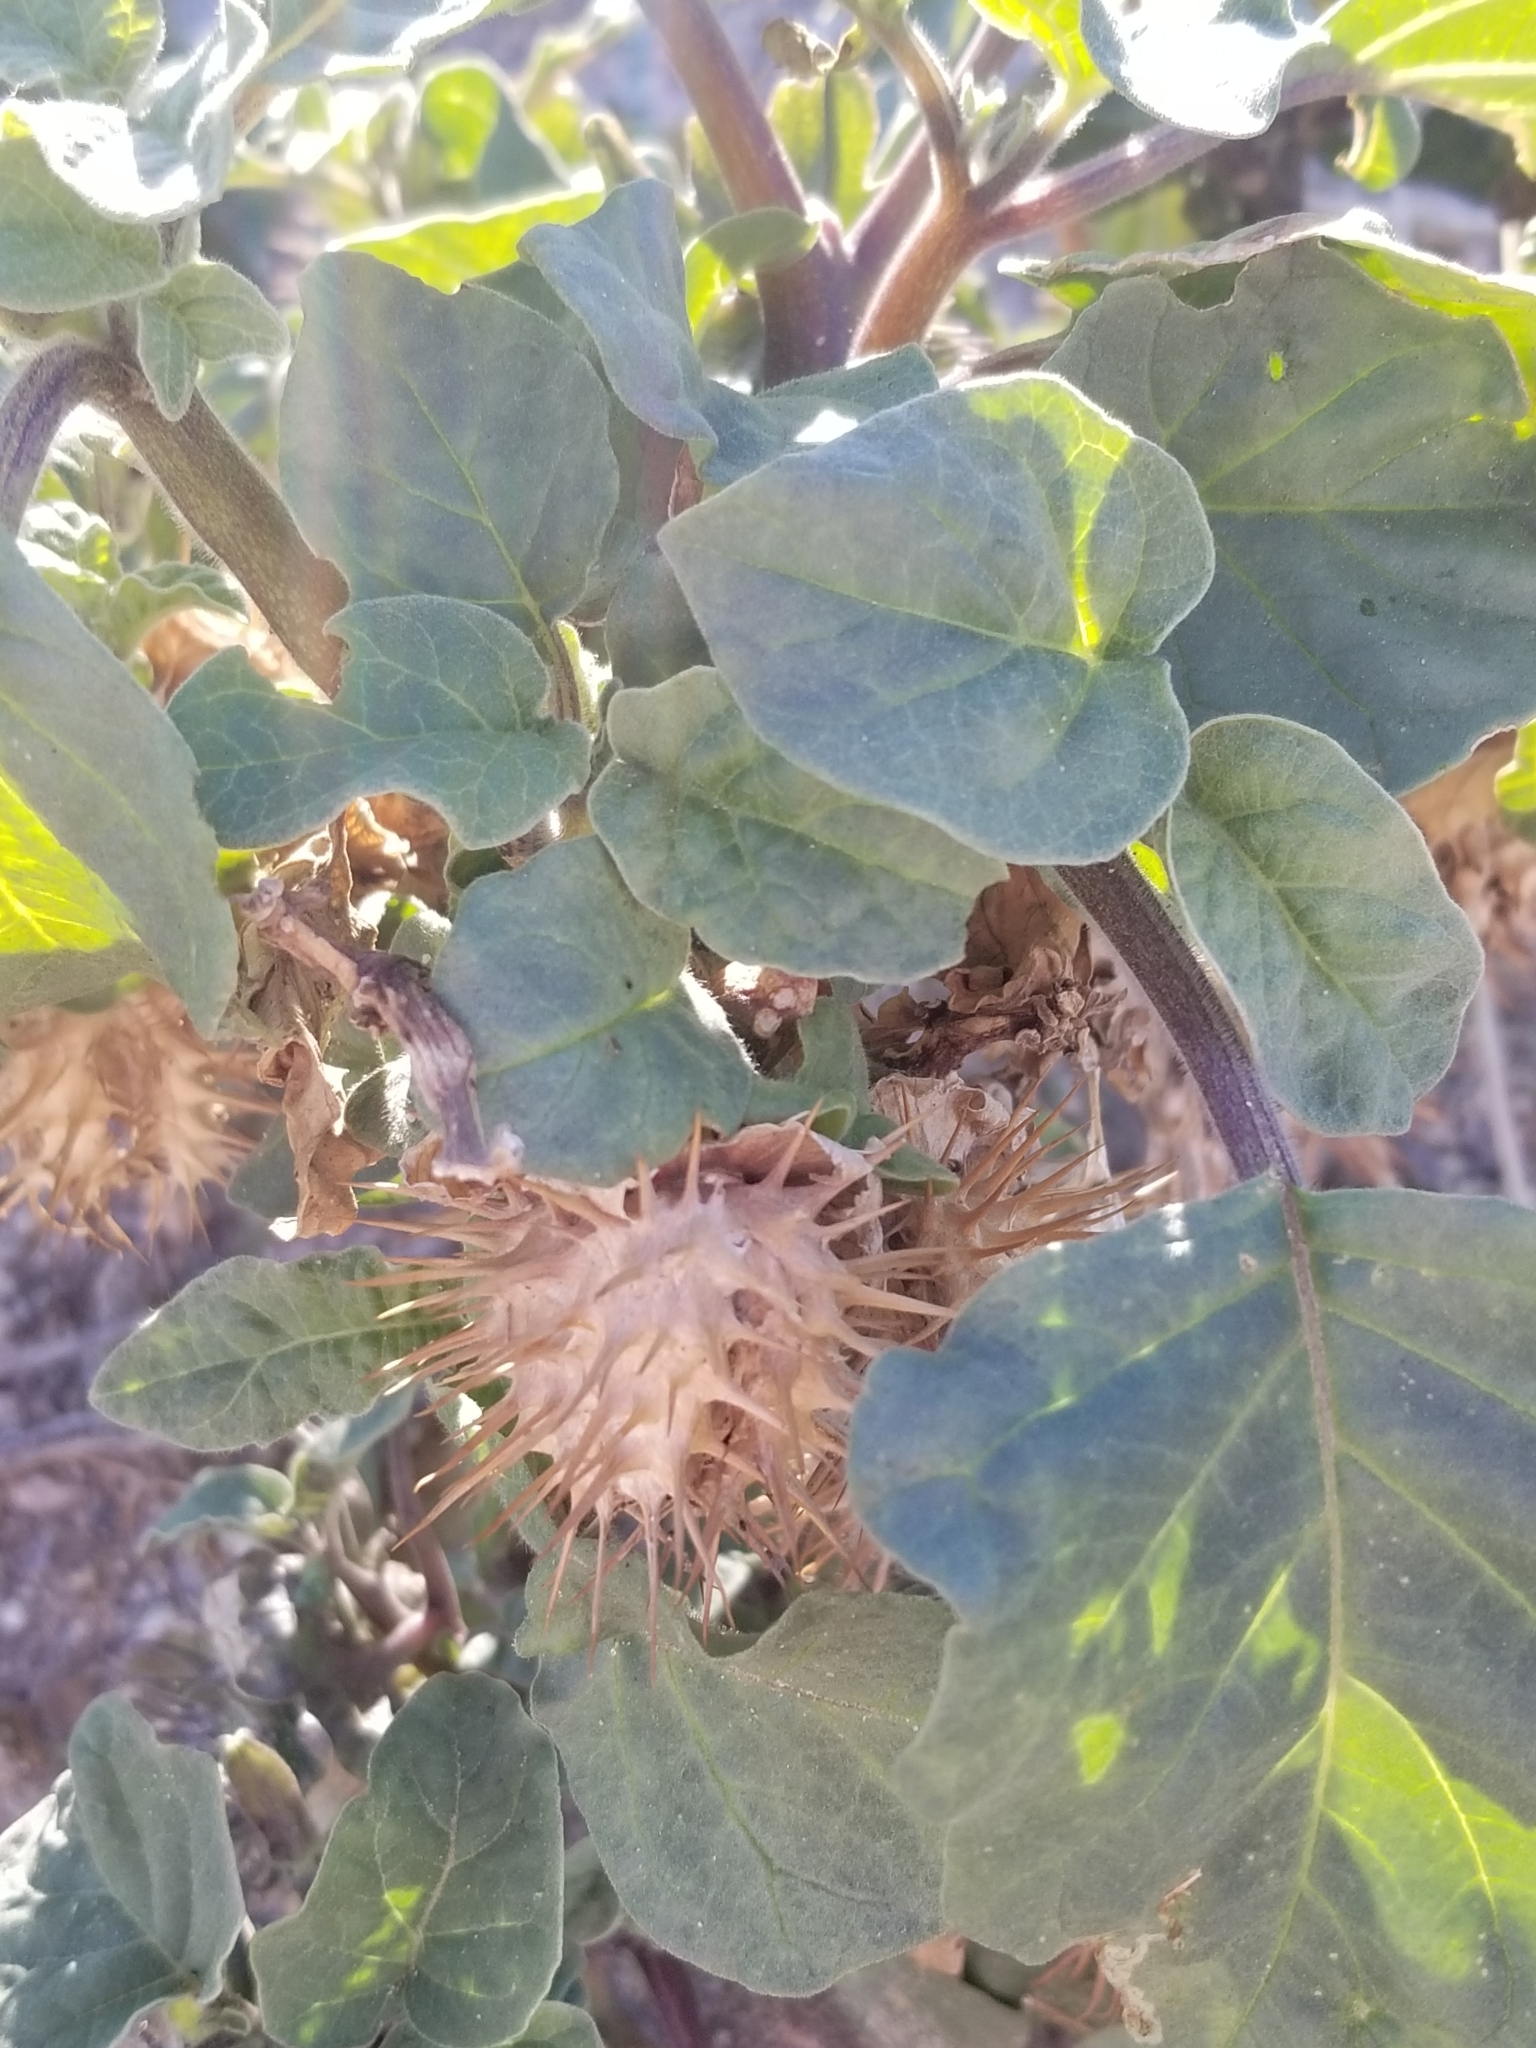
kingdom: Plantae
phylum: Tracheophyta
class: Magnoliopsida
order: Solanales
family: Solanaceae
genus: Datura
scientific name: Datura discolor
